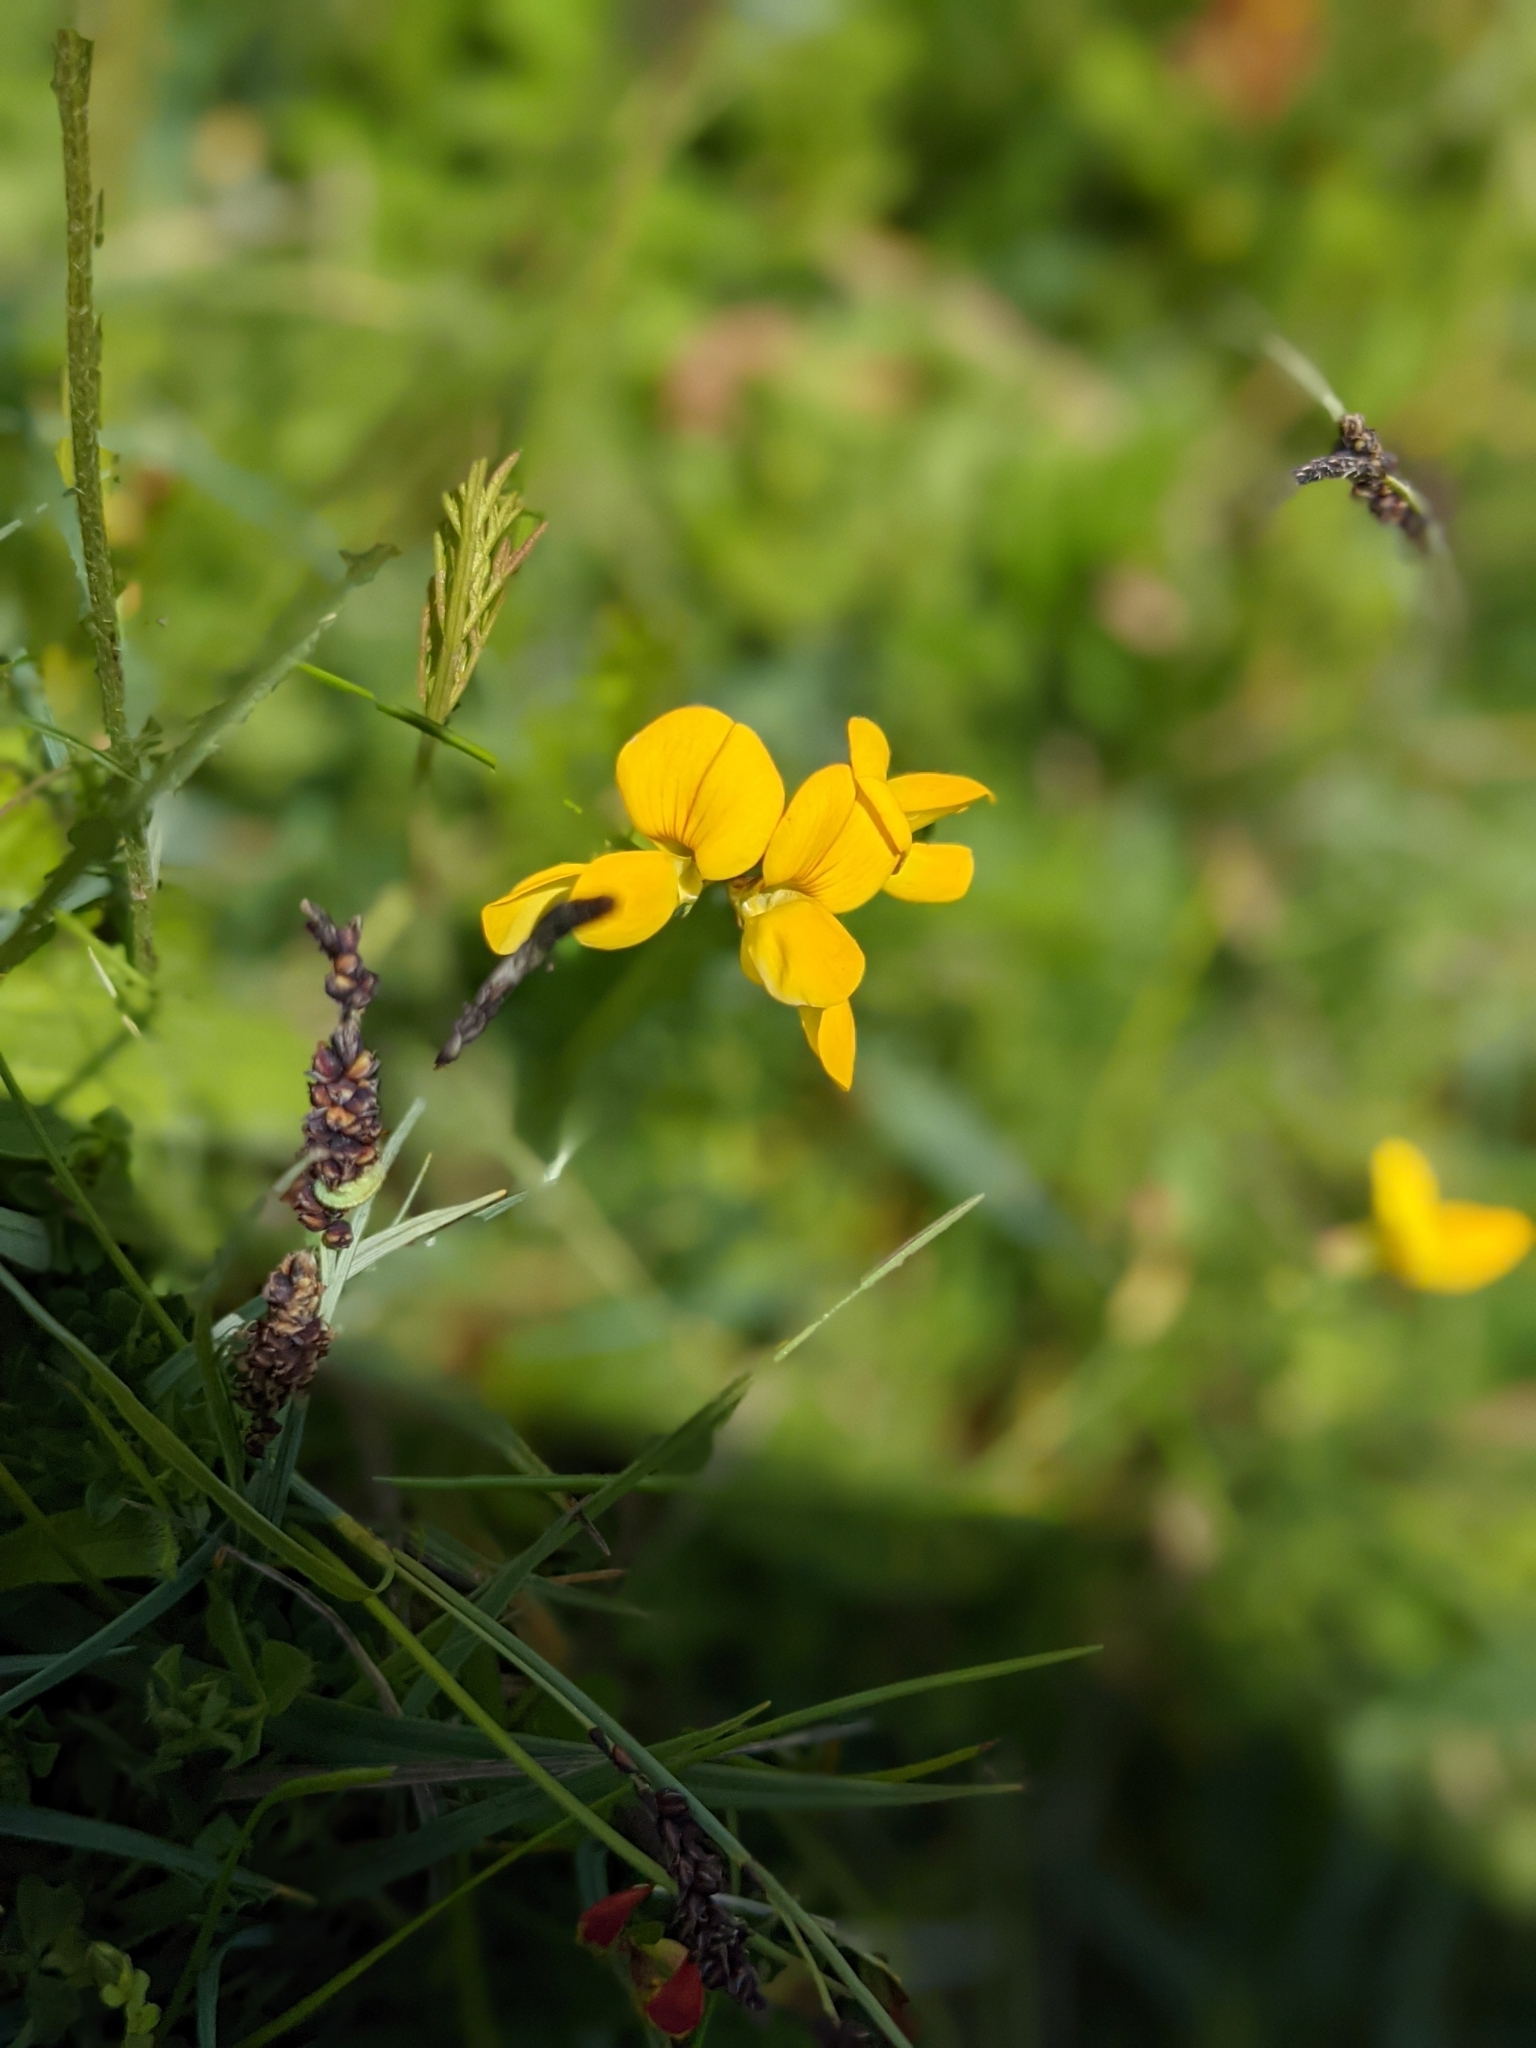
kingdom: Plantae
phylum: Tracheophyta
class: Magnoliopsida
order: Fabales
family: Fabaceae
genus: Lotus
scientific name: Lotus corniculatus
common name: Common bird's-foot-trefoil
